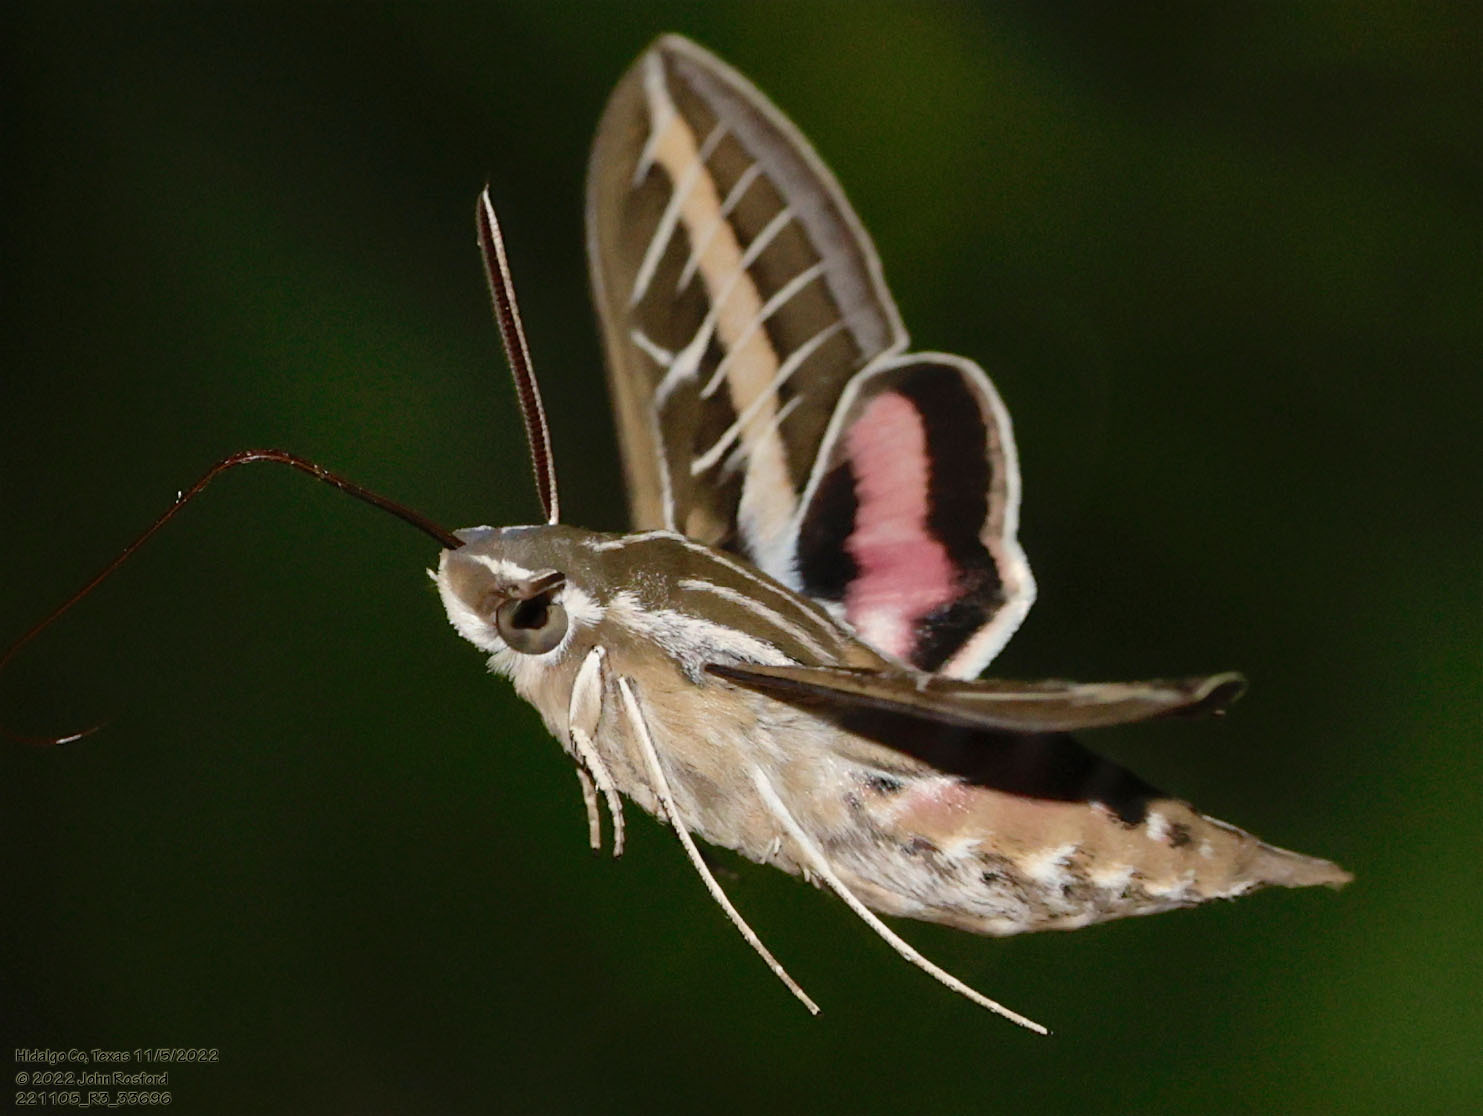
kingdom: Animalia
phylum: Arthropoda
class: Insecta
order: Lepidoptera
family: Sphingidae
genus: Hyles
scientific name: Hyles lineata
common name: White-lined sphinx
